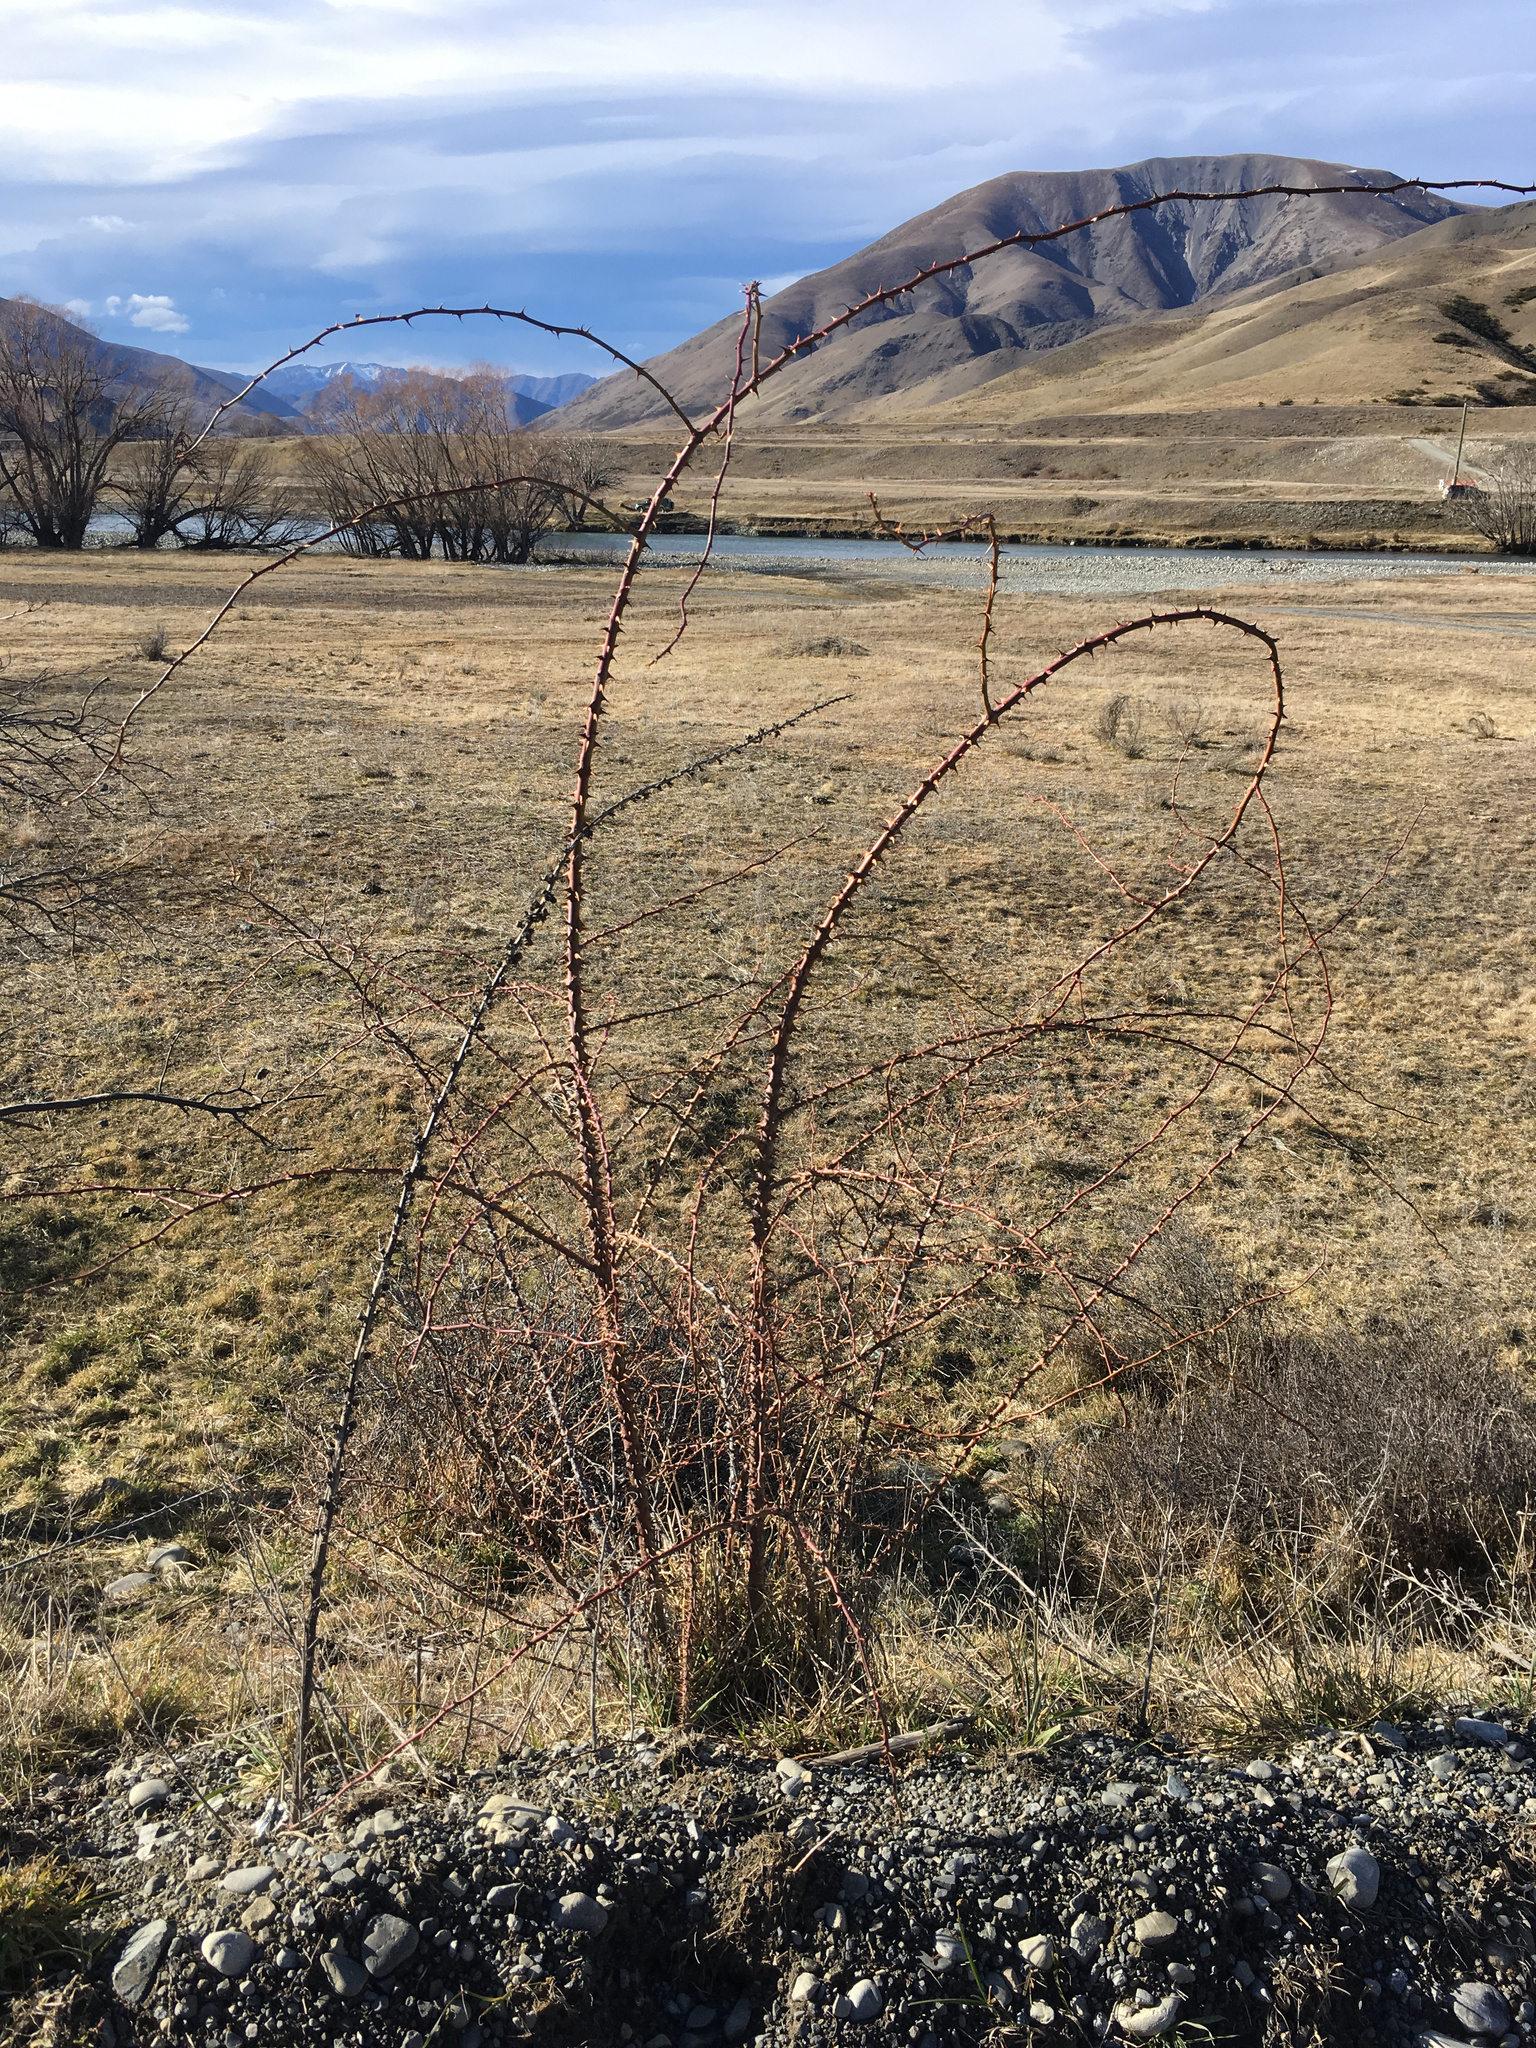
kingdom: Plantae
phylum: Tracheophyta
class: Magnoliopsida
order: Rosales
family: Rosaceae
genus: Rosa
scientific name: Rosa rubiginosa
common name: Sweet-briar
